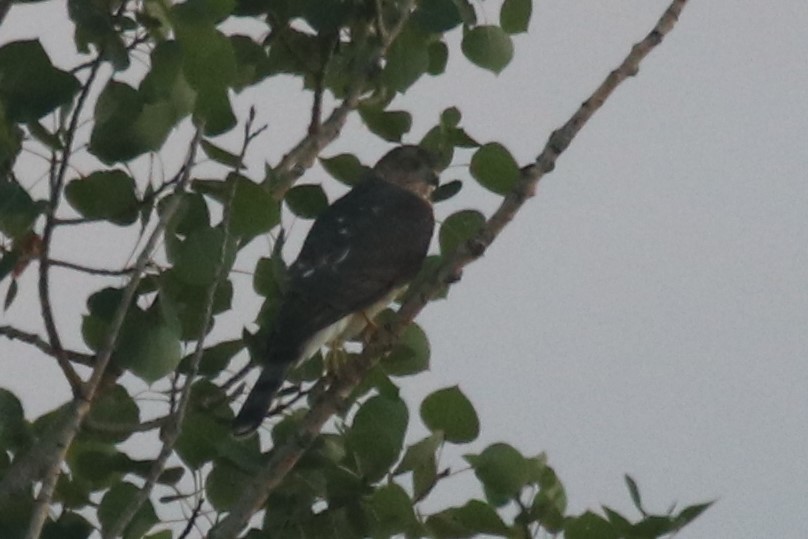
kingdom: Animalia
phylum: Chordata
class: Aves
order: Accipitriformes
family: Accipitridae
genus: Accipiter
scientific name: Accipiter striatus
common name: Sharp-shinned hawk
